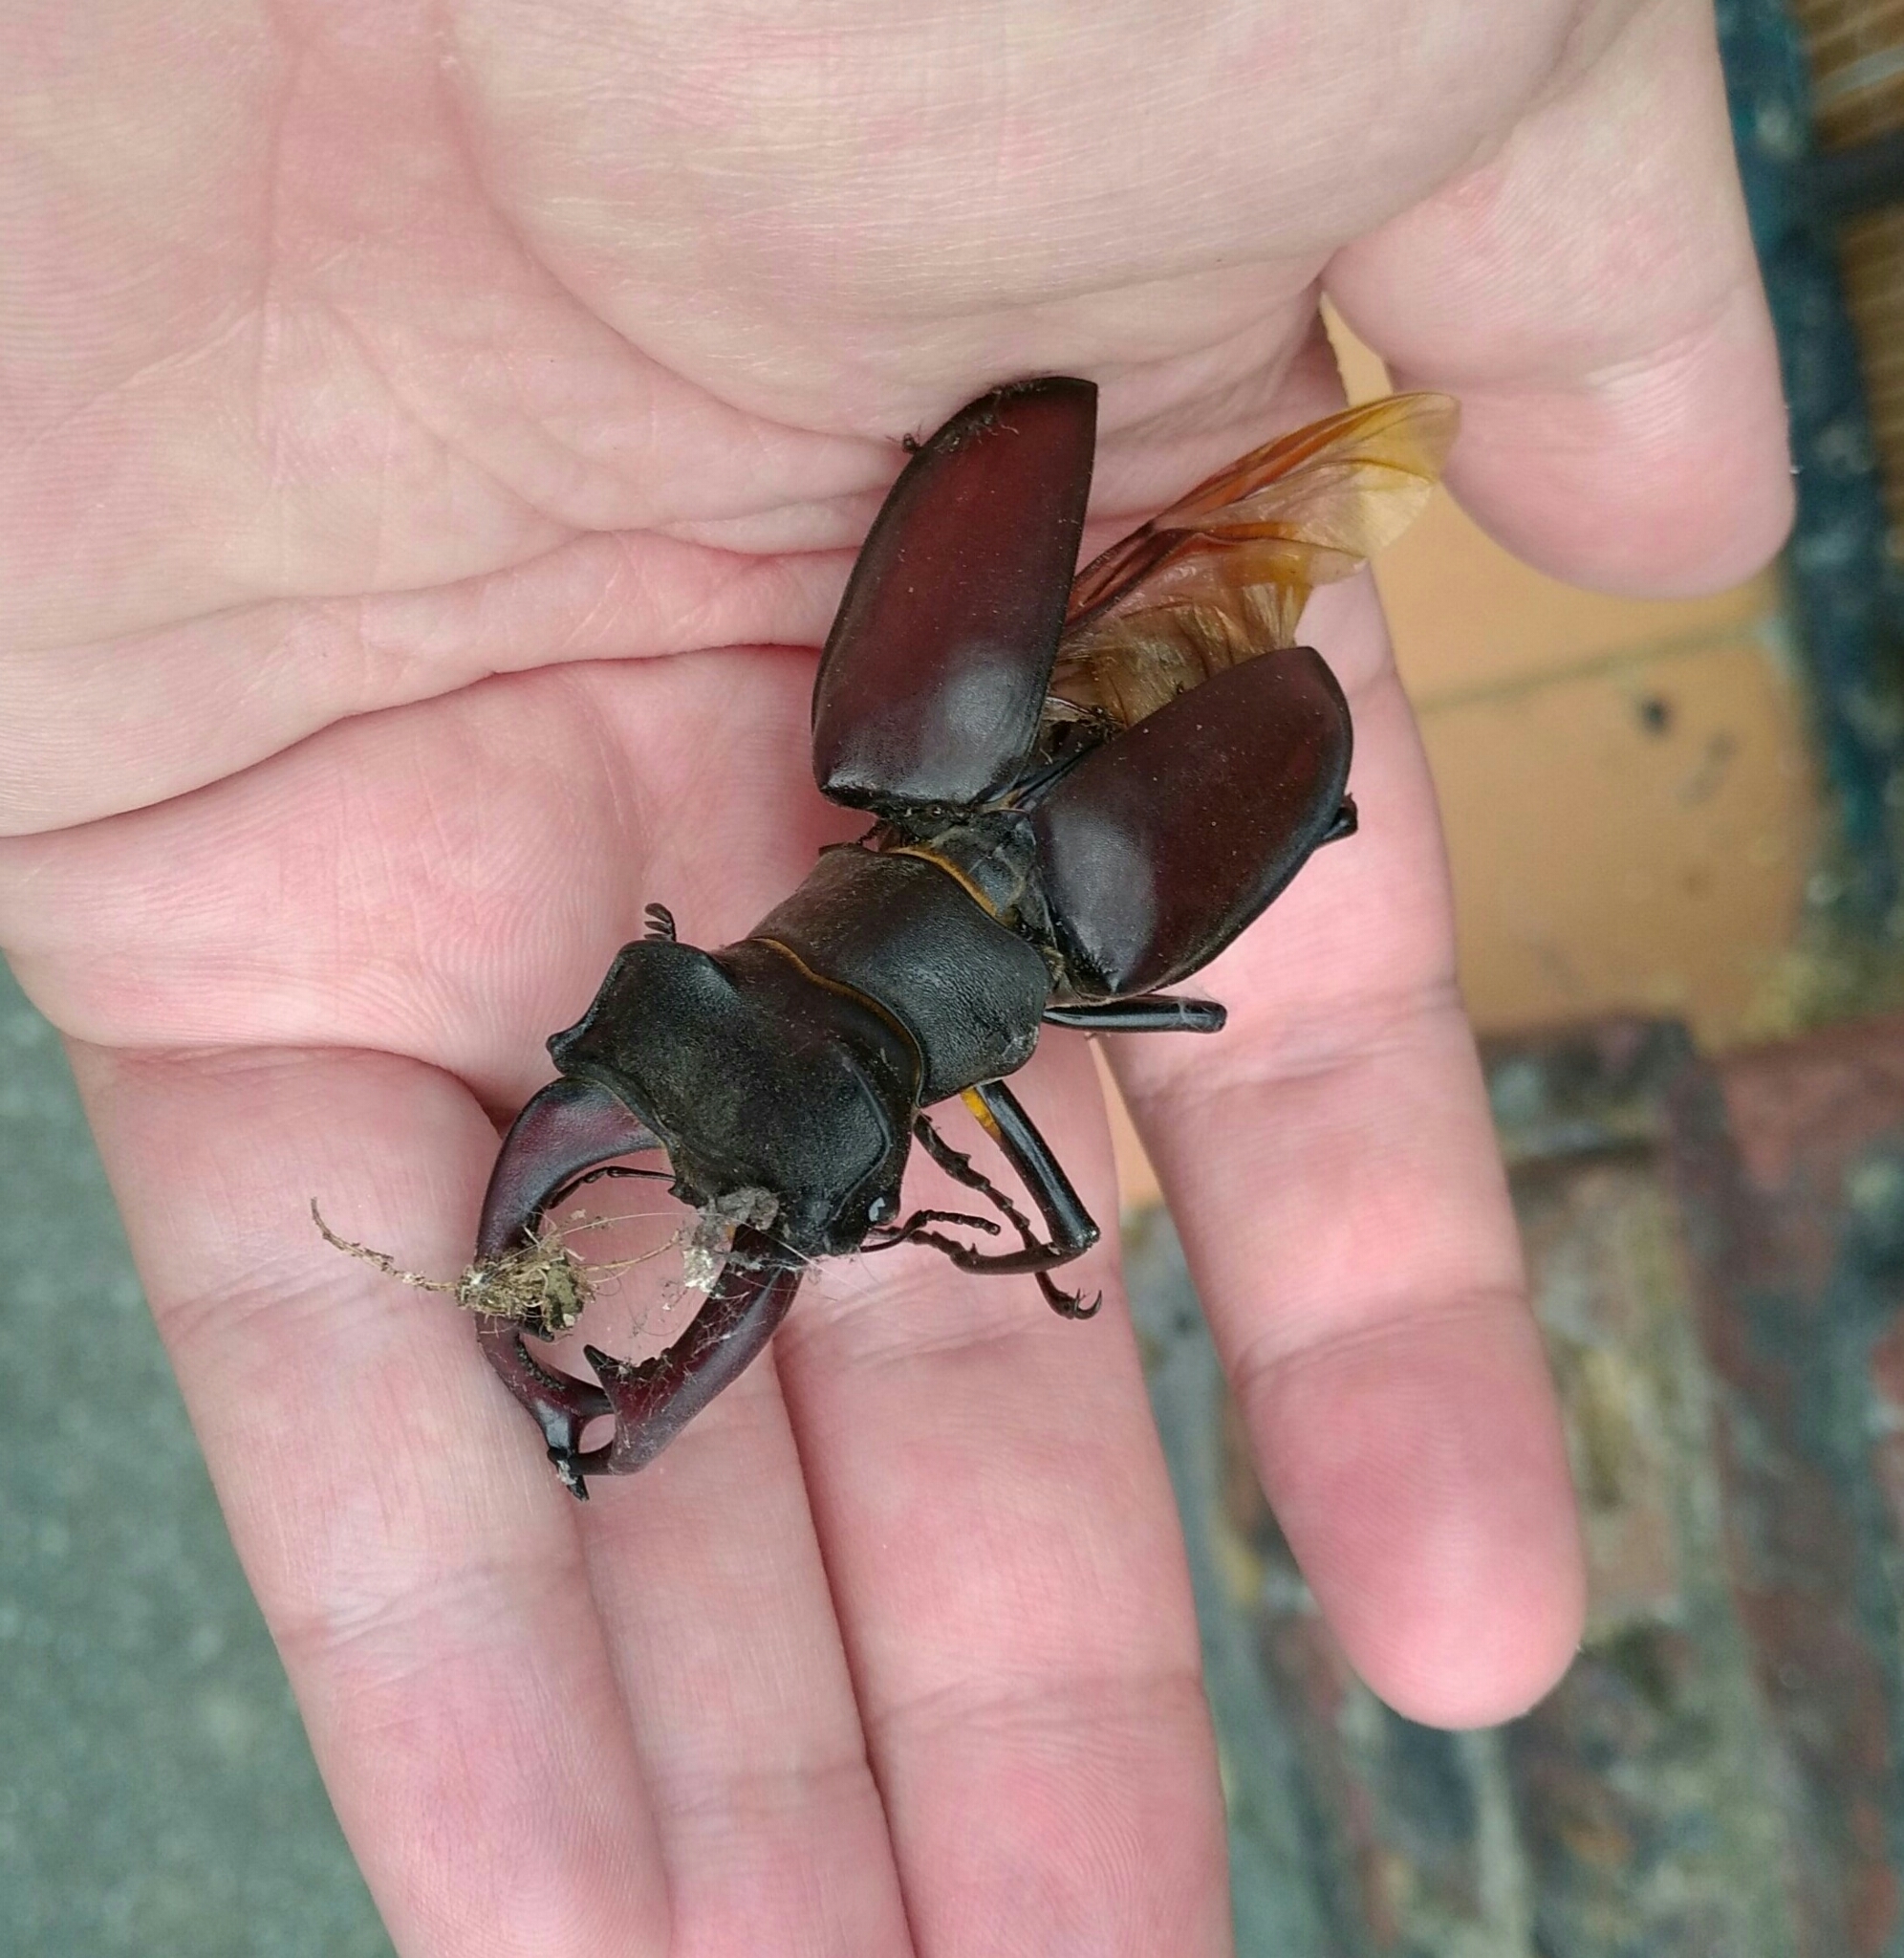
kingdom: Animalia
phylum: Arthropoda
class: Insecta
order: Coleoptera
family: Lucanidae
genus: Lucanus
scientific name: Lucanus cervus
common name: Stag beetle
